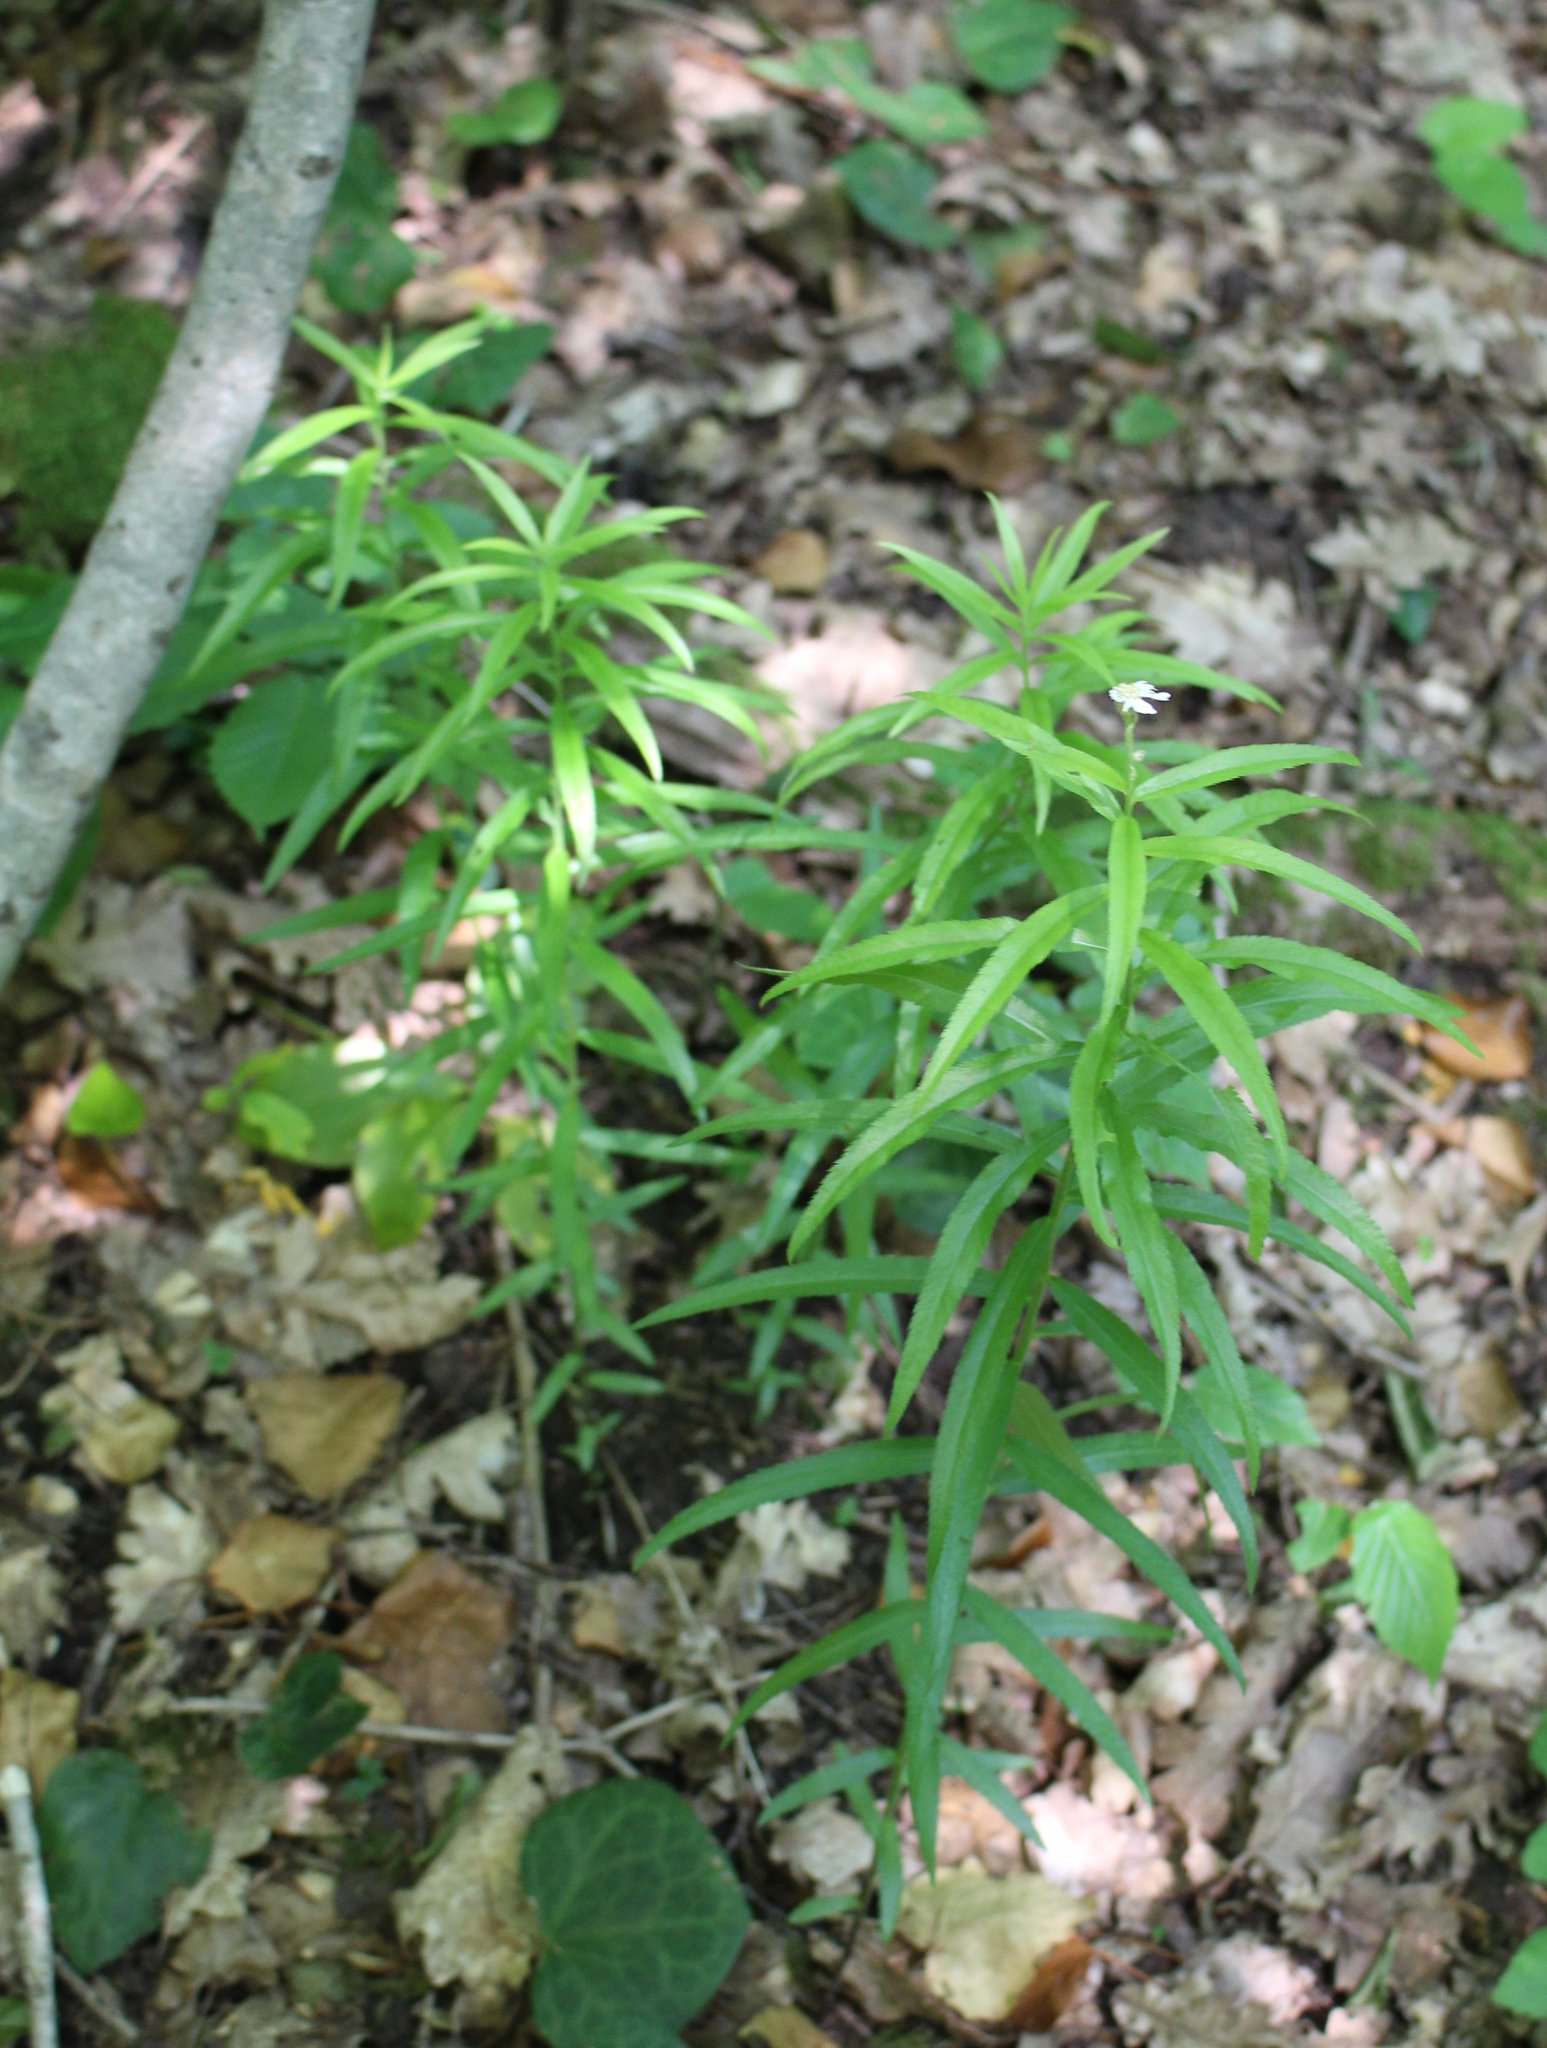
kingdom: Plantae
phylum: Tracheophyta
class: Magnoliopsida
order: Asterales
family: Asteraceae
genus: Achillea
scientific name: Achillea biserrata
